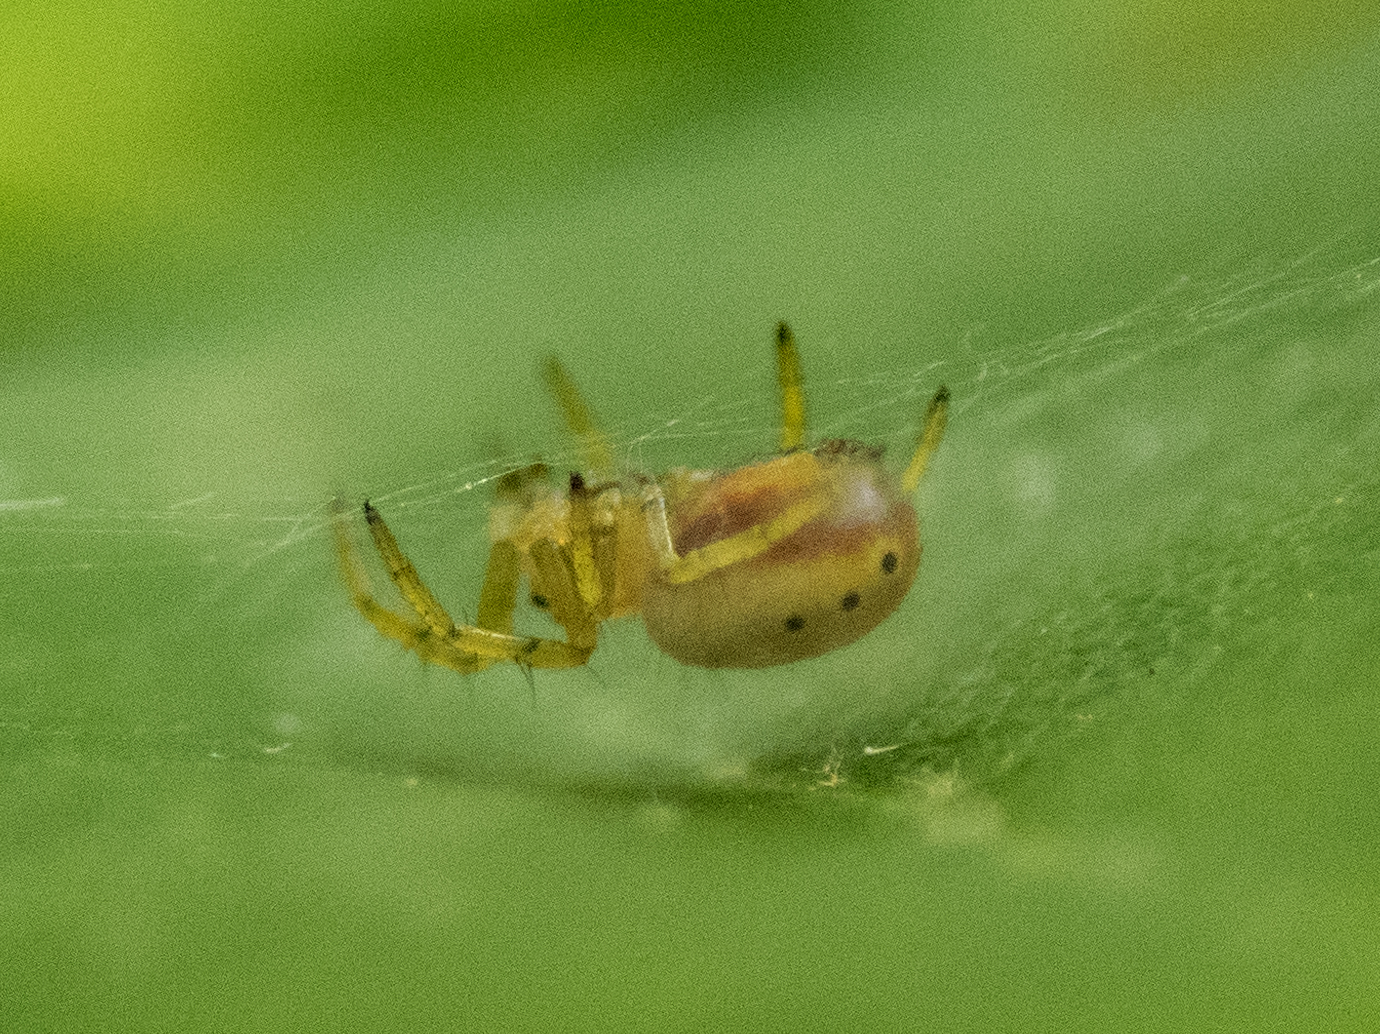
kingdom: Animalia
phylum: Arthropoda
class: Arachnida
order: Araneae
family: Araneidae
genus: Araniella
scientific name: Araniella displicata
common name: Sixspotted orb weaver
